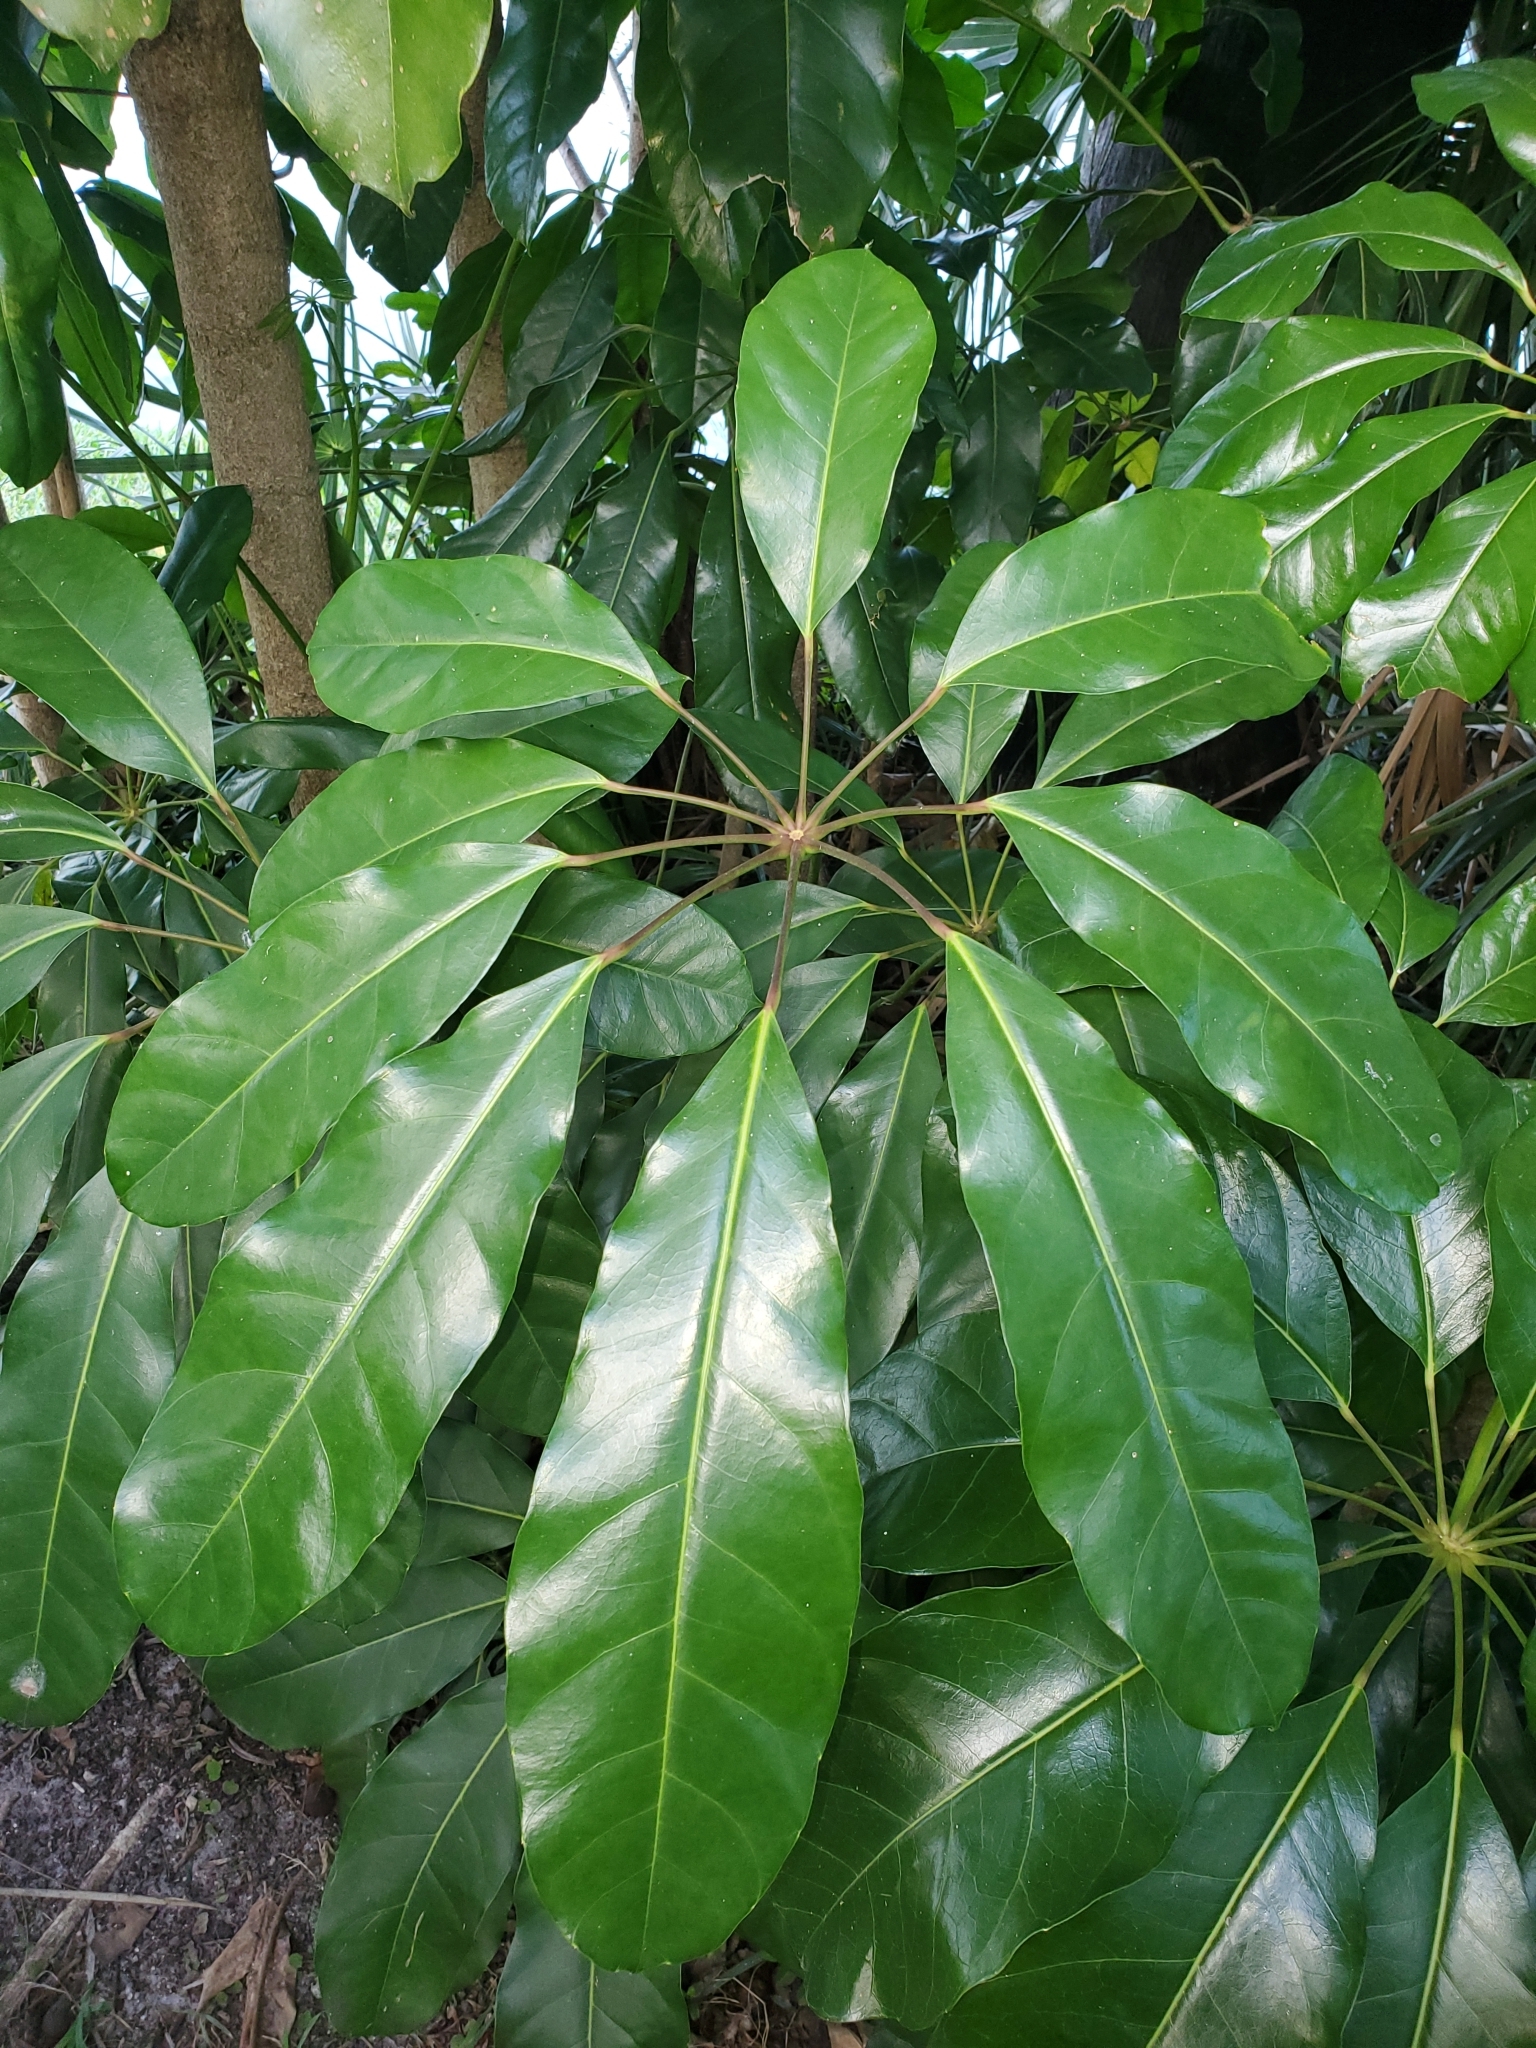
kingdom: Plantae
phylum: Tracheophyta
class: Magnoliopsida
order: Apiales
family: Araliaceae
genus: Heptapleurum
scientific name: Heptapleurum actinophyllum
